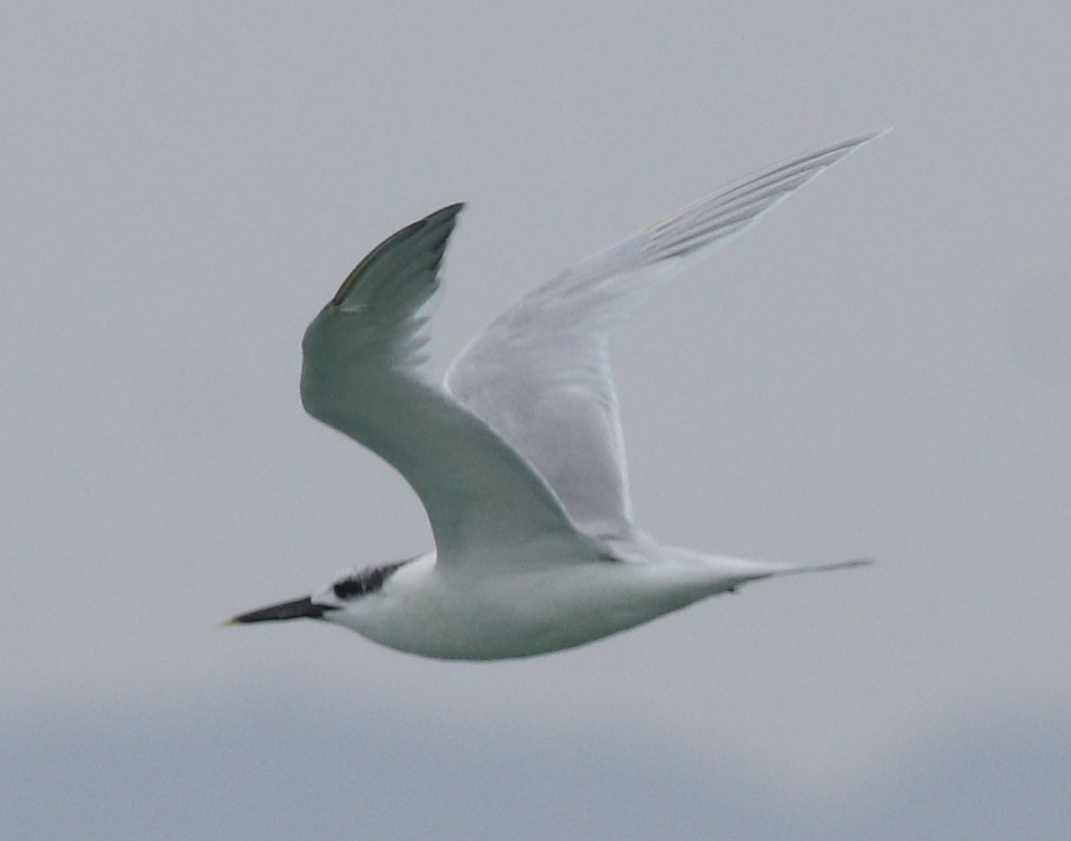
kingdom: Animalia
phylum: Chordata
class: Aves
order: Charadriiformes
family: Laridae
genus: Thalasseus
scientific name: Thalasseus sandvicensis
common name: Sandwich tern
